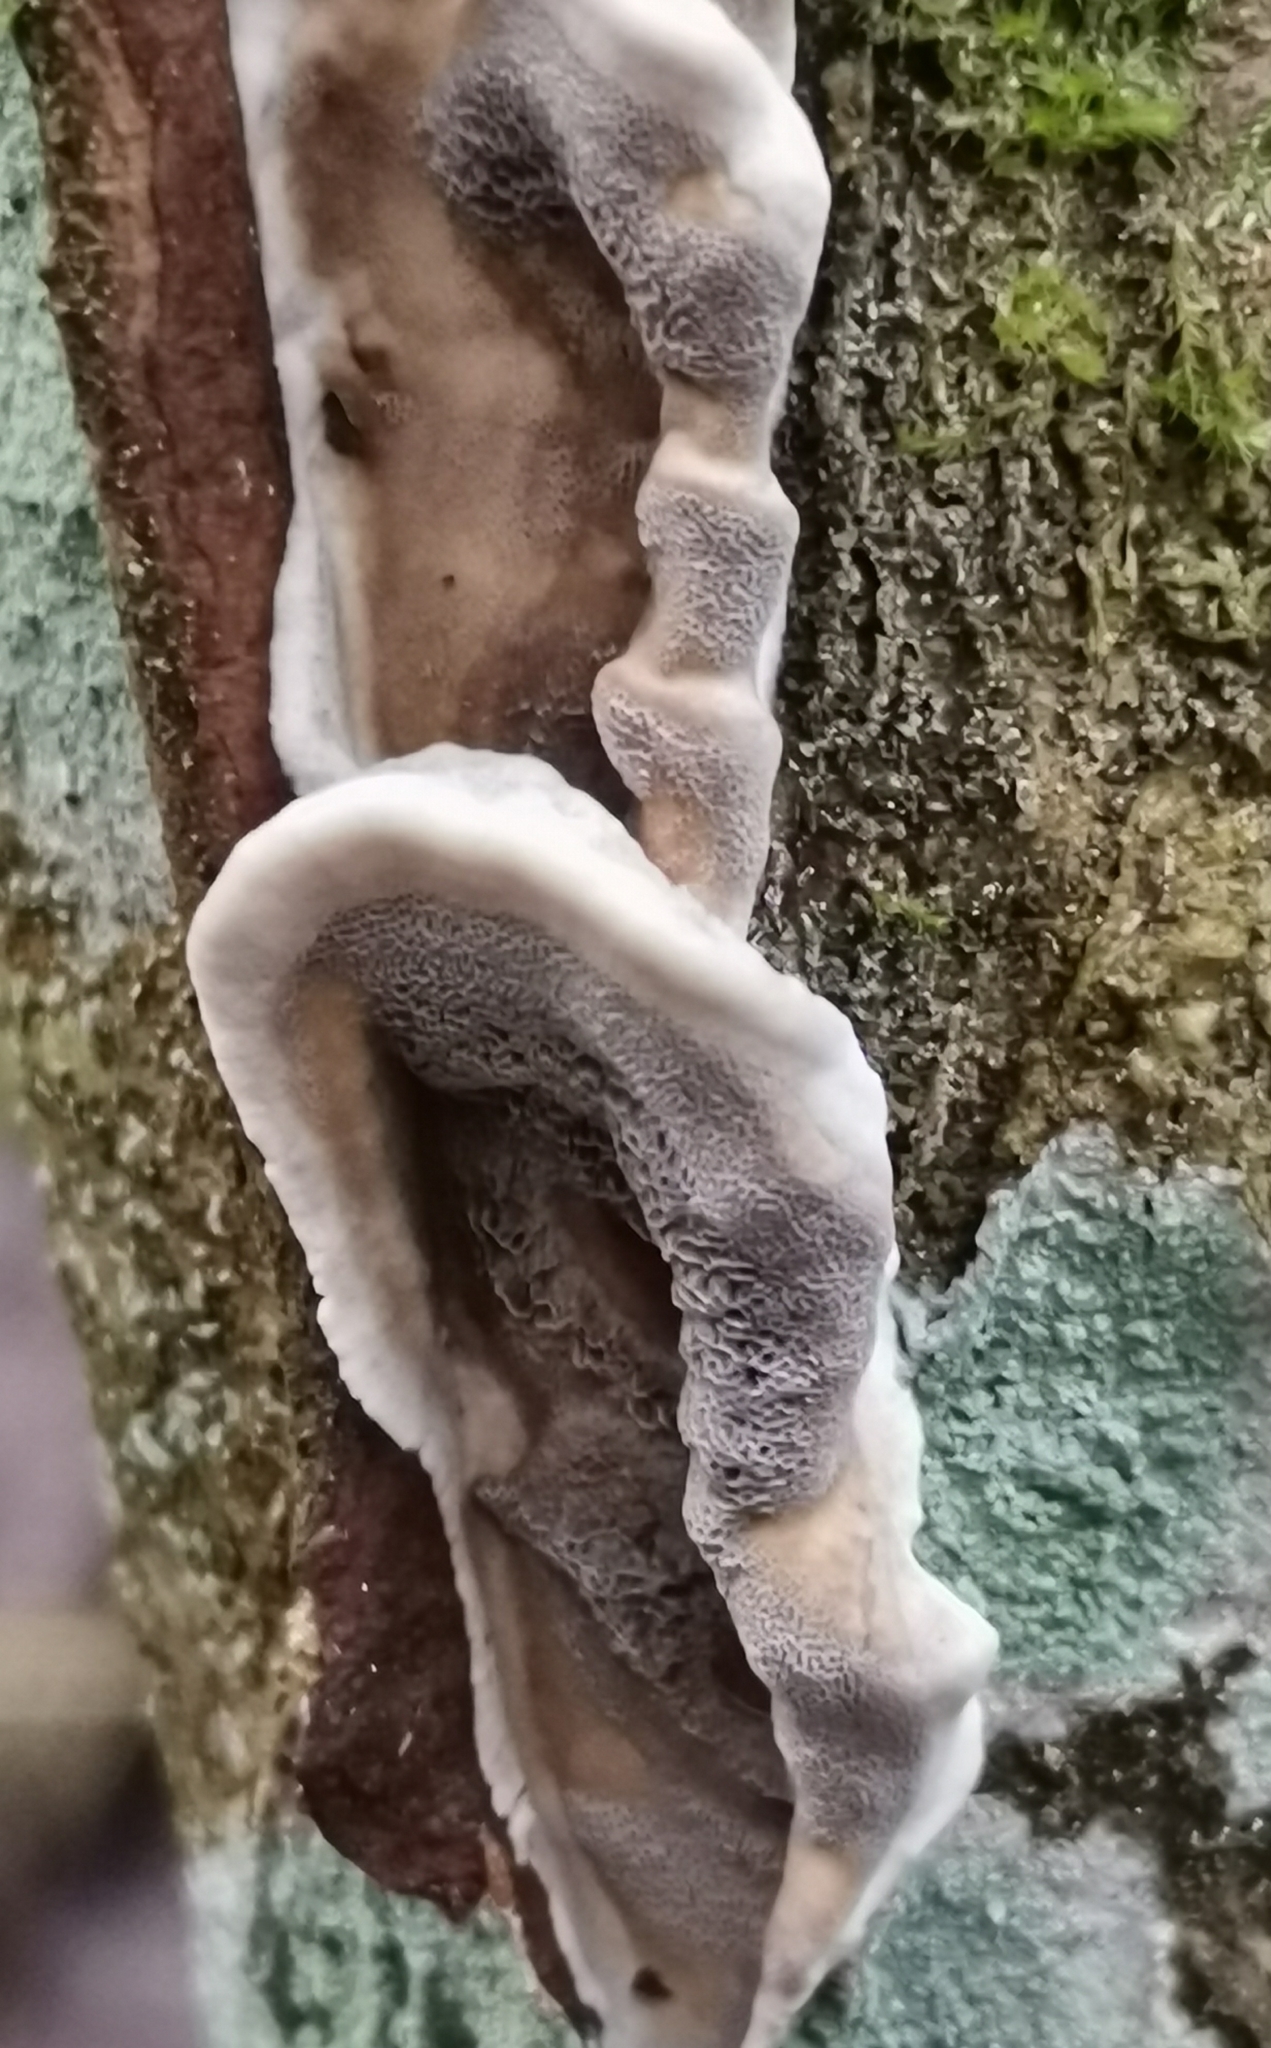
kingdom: Fungi
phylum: Basidiomycota
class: Agaricomycetes
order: Polyporales
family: Phanerochaetaceae
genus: Bjerkandera
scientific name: Bjerkandera adusta
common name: Smoky bracket
